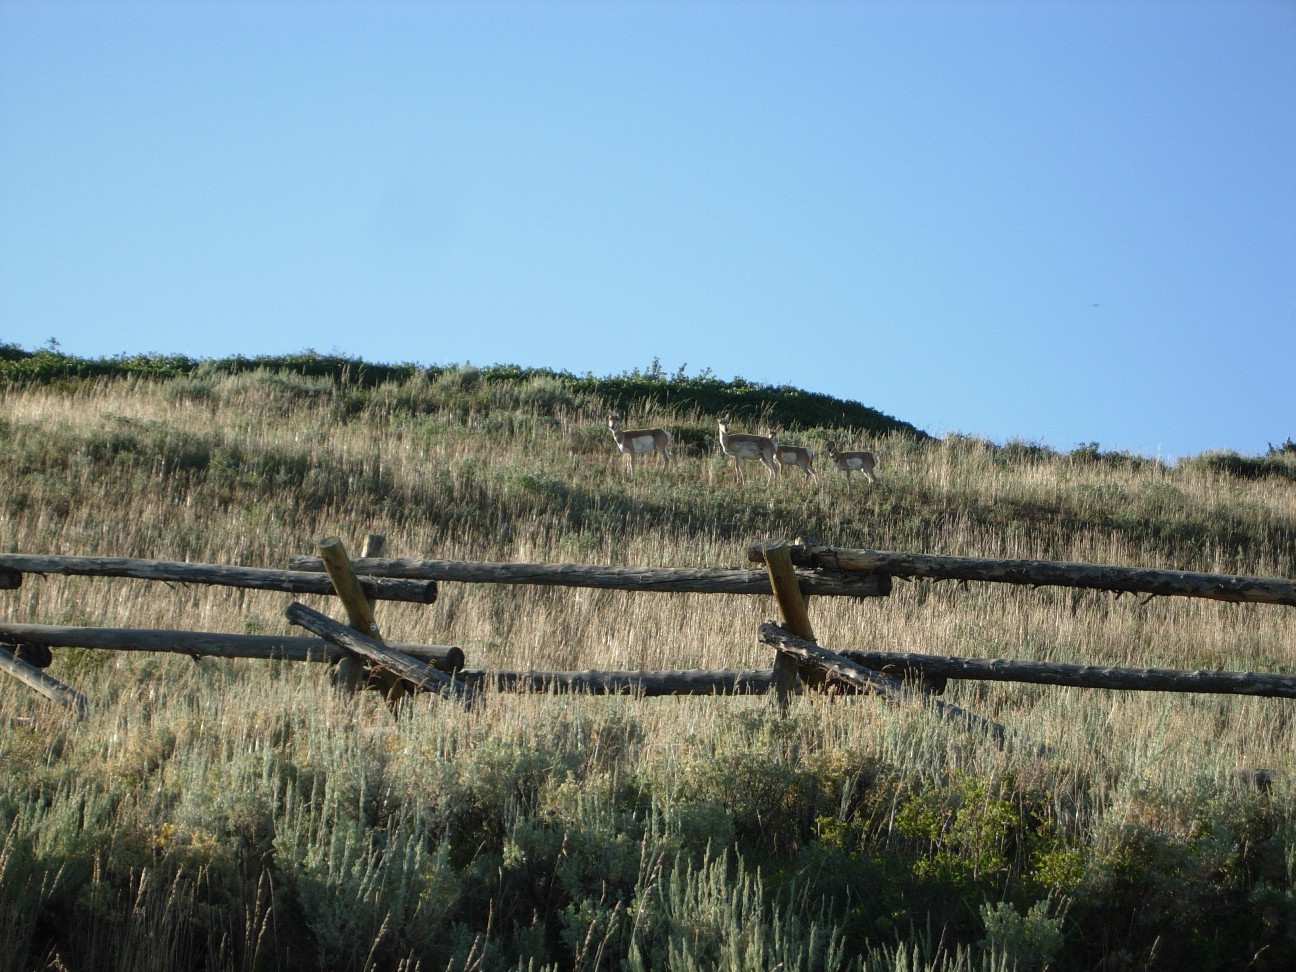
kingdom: Animalia
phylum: Chordata
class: Mammalia
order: Artiodactyla
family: Antilocapridae
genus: Antilocapra
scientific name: Antilocapra americana
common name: Pronghorn
